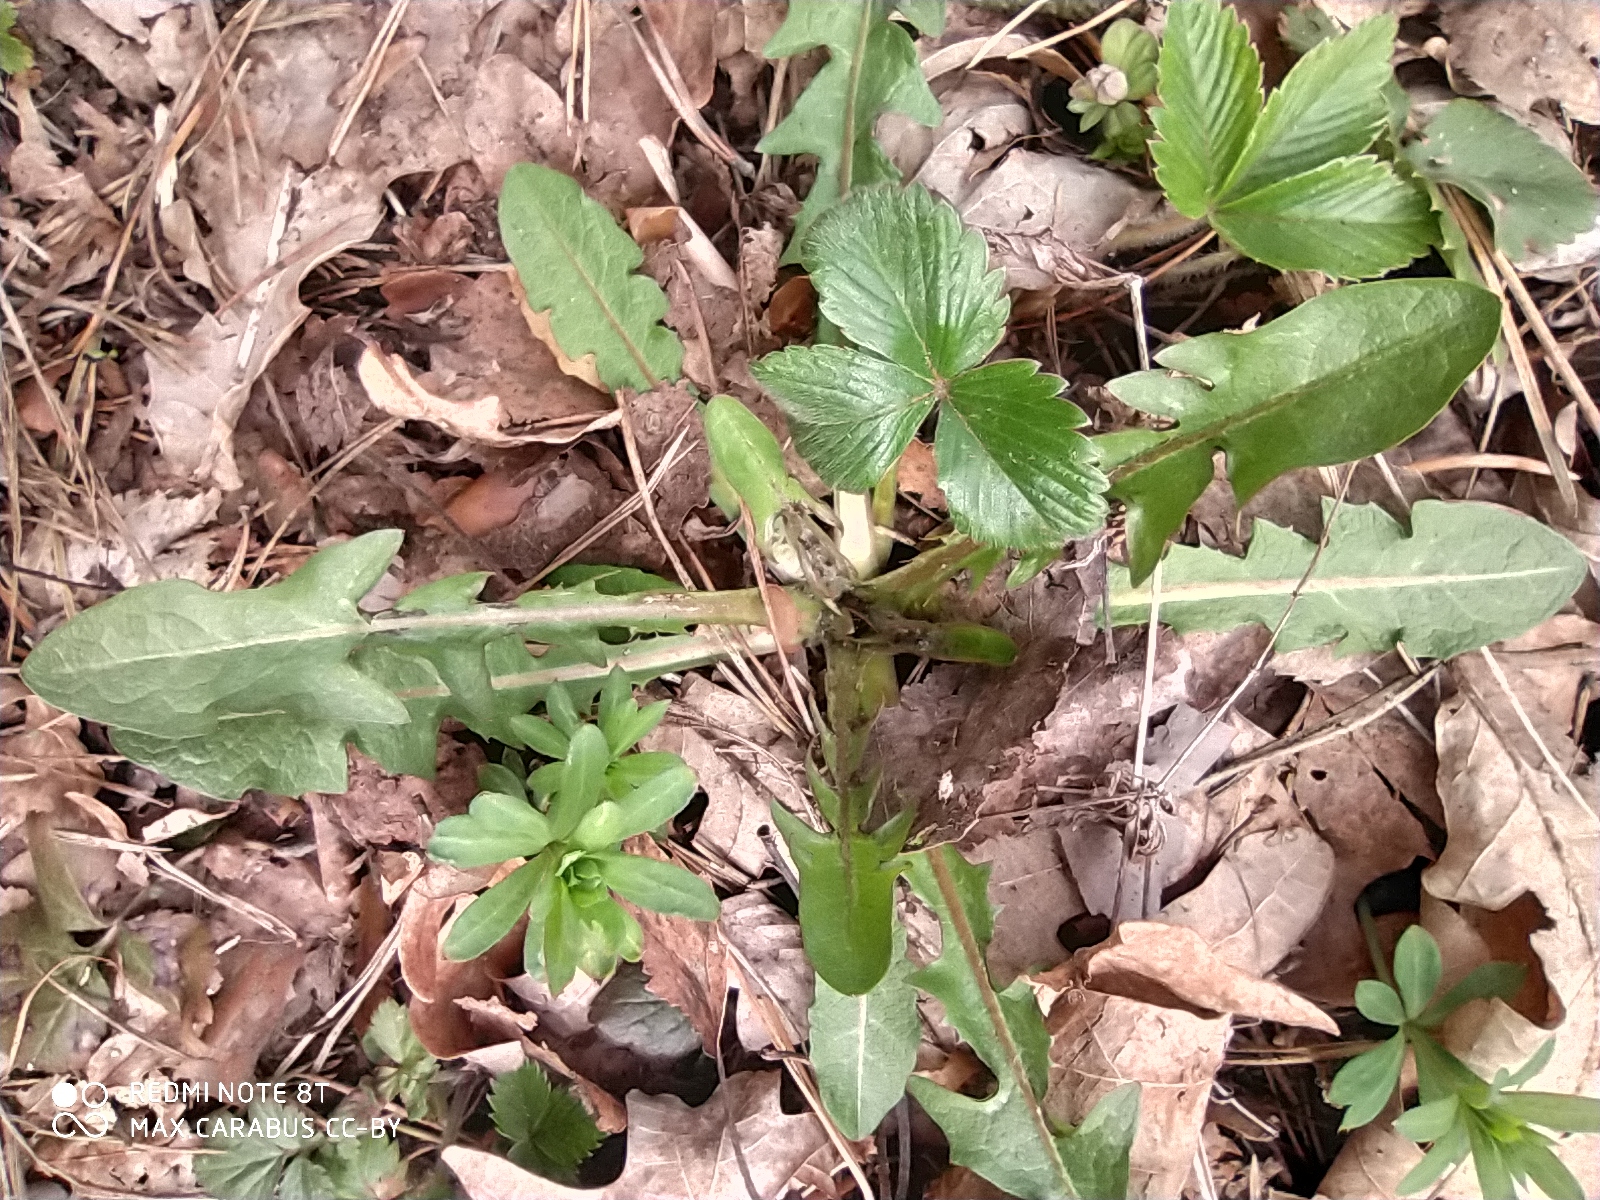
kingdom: Plantae
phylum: Tracheophyta
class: Magnoliopsida
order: Asterales
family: Asteraceae
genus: Taraxacum
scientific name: Taraxacum officinale
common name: Common dandelion
